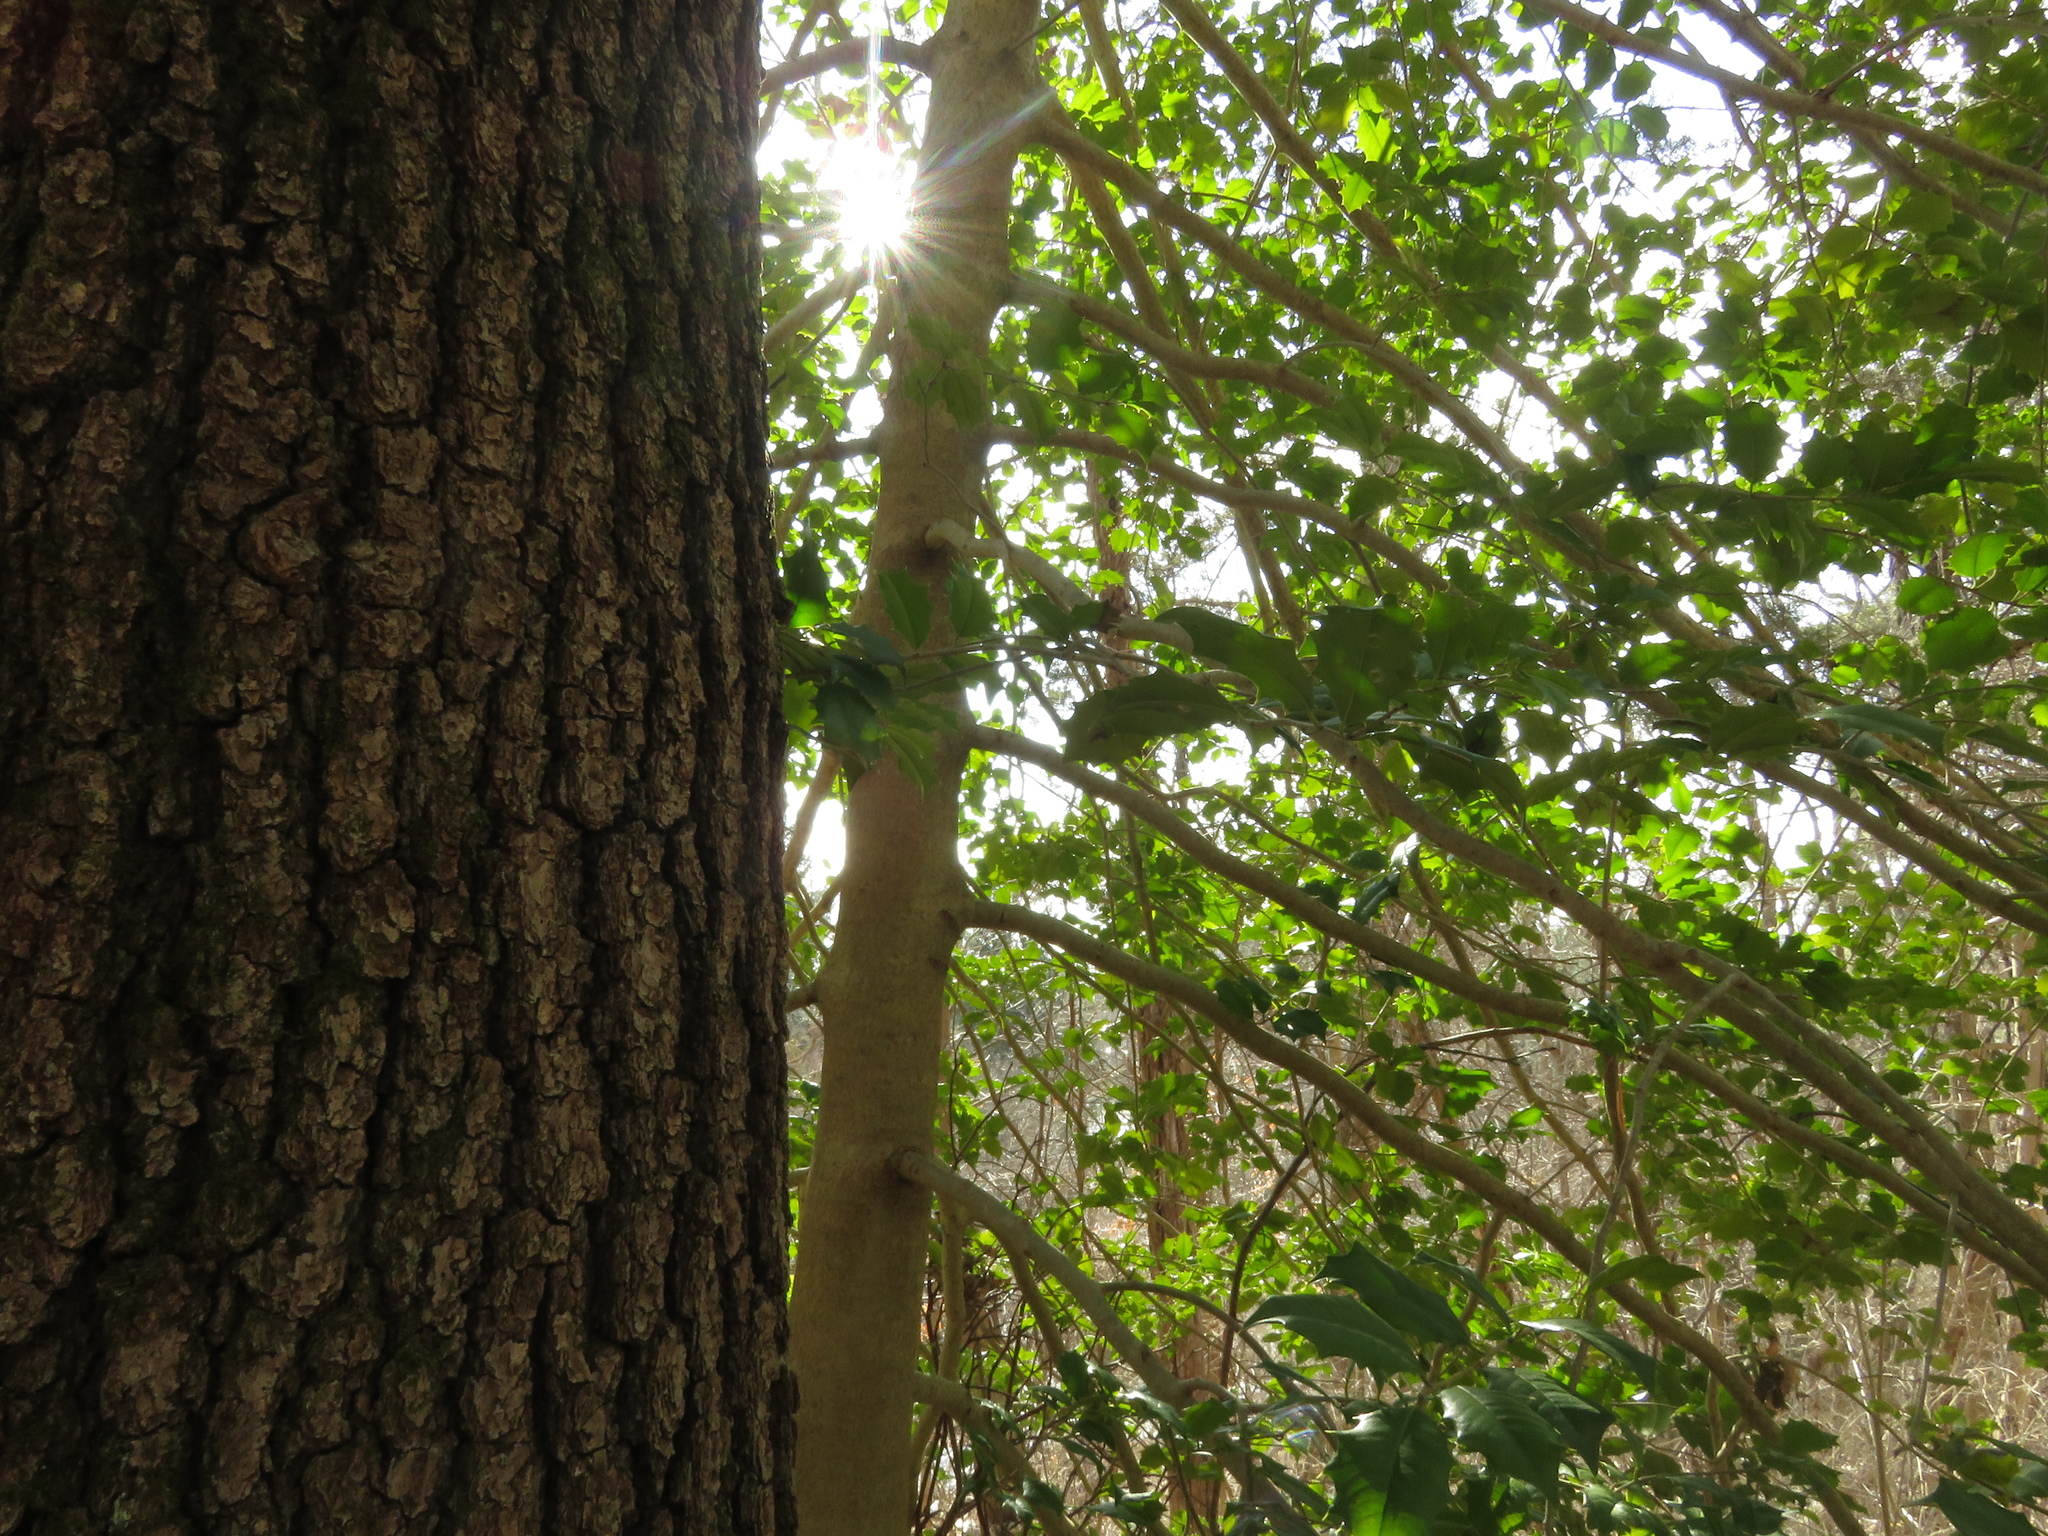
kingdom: Plantae
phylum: Tracheophyta
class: Magnoliopsida
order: Aquifoliales
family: Aquifoliaceae
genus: Ilex
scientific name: Ilex opaca
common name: American holly
